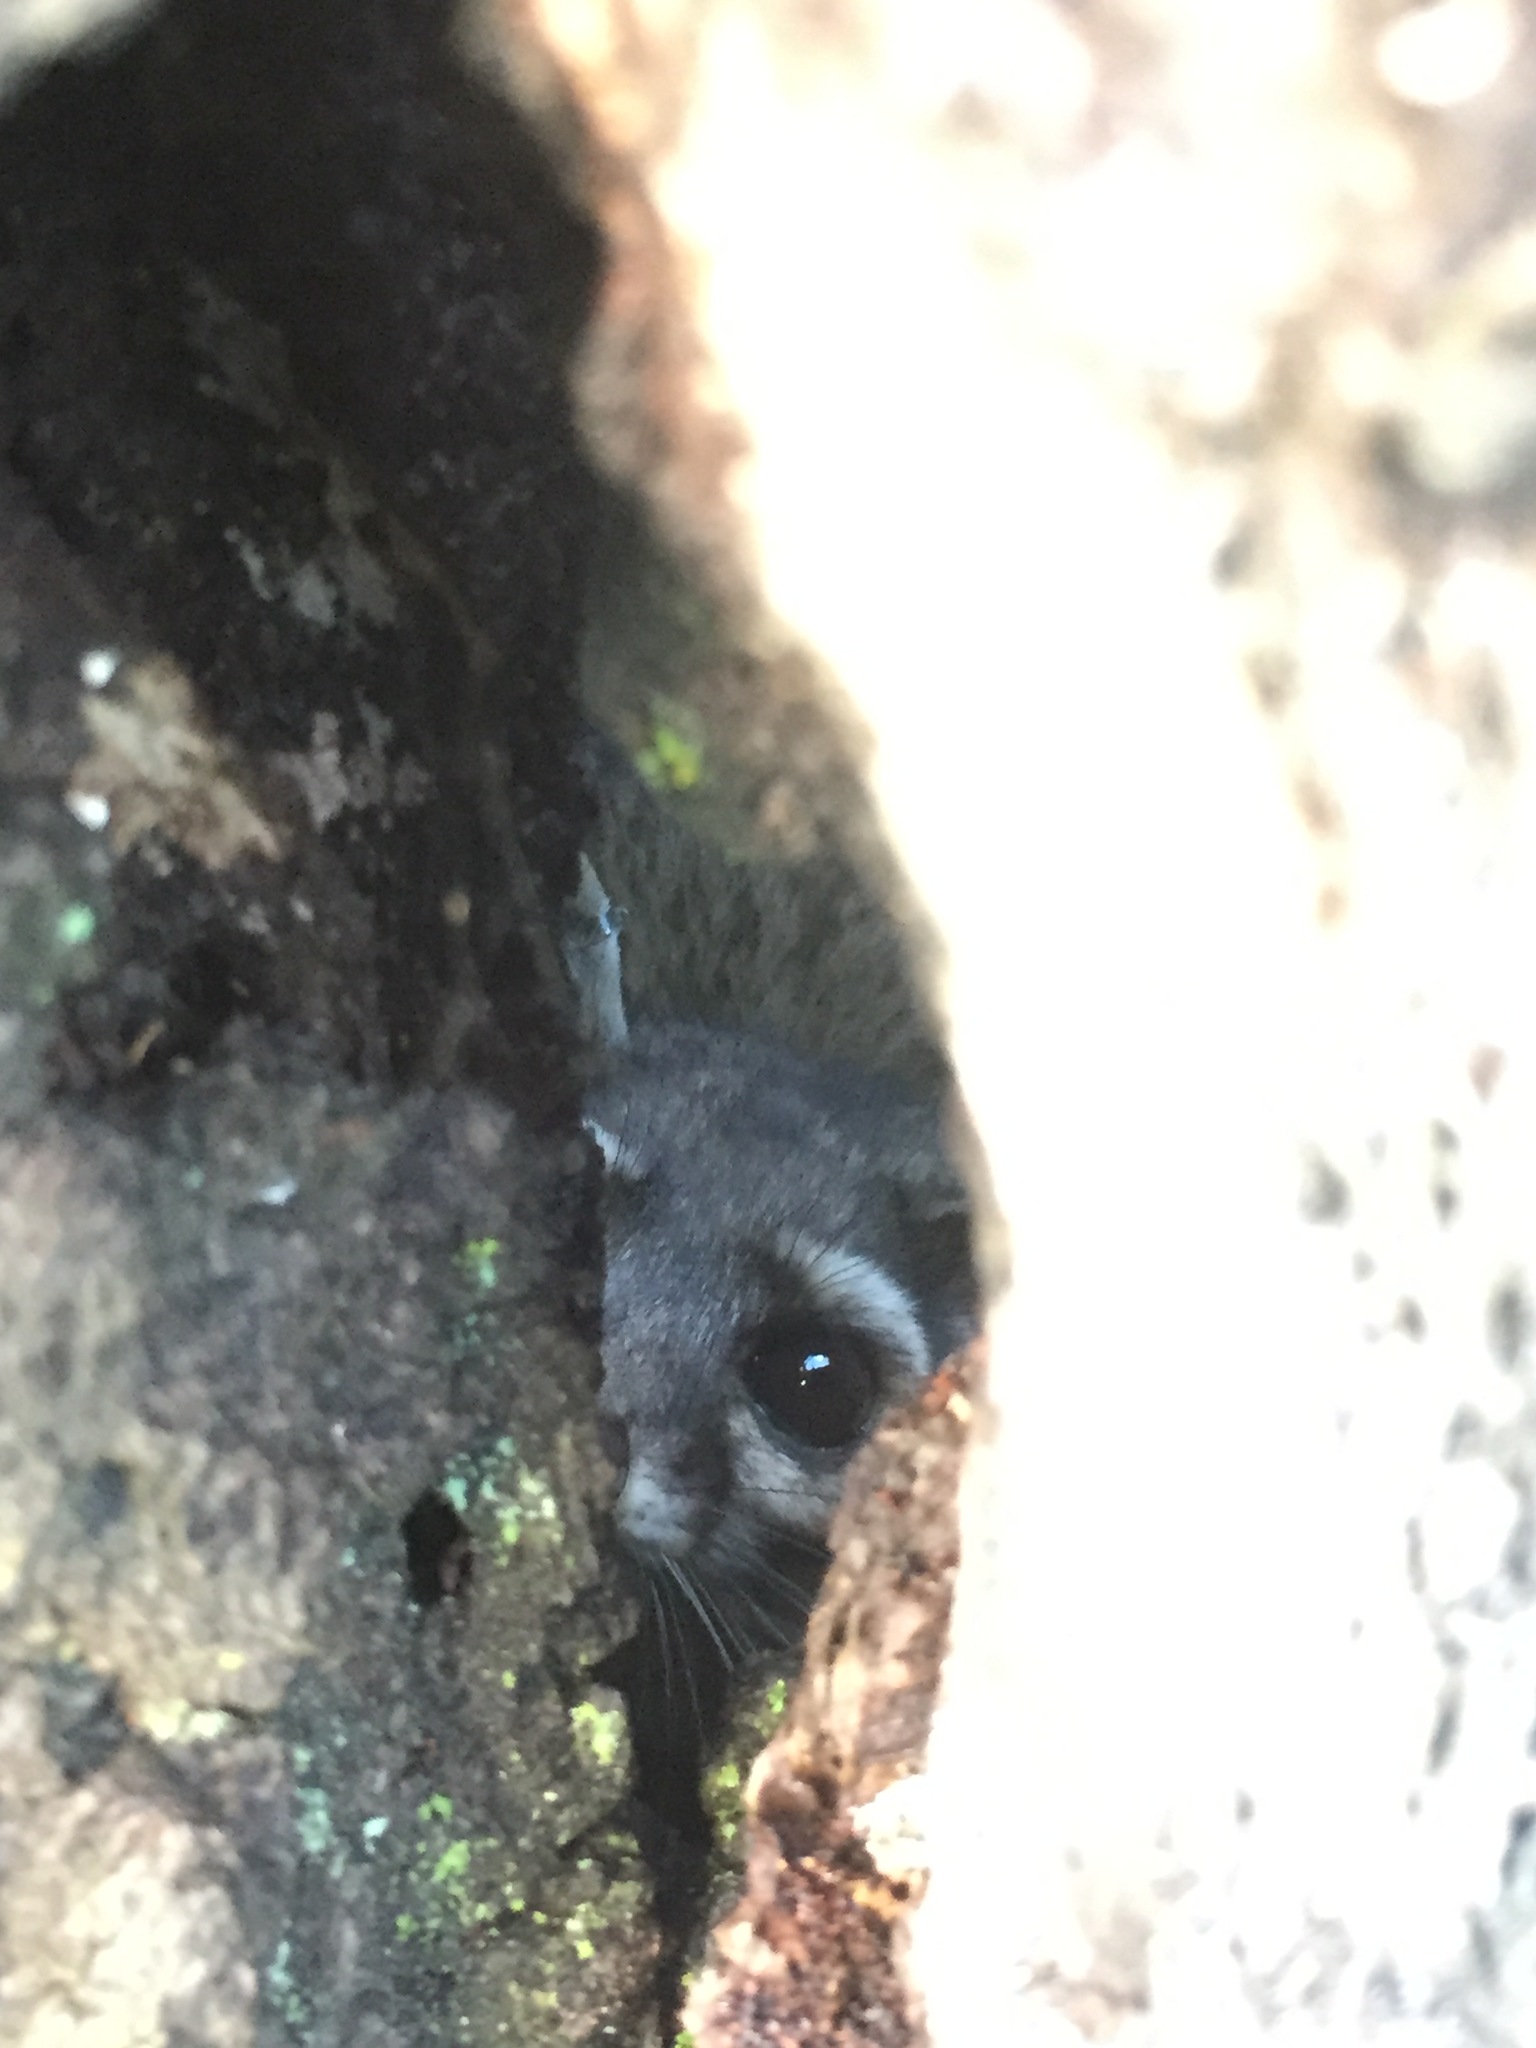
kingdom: Animalia
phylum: Chordata
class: Mammalia
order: Carnivora
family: Procyonidae
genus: Bassariscus
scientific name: Bassariscus astutus
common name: Ringtail
